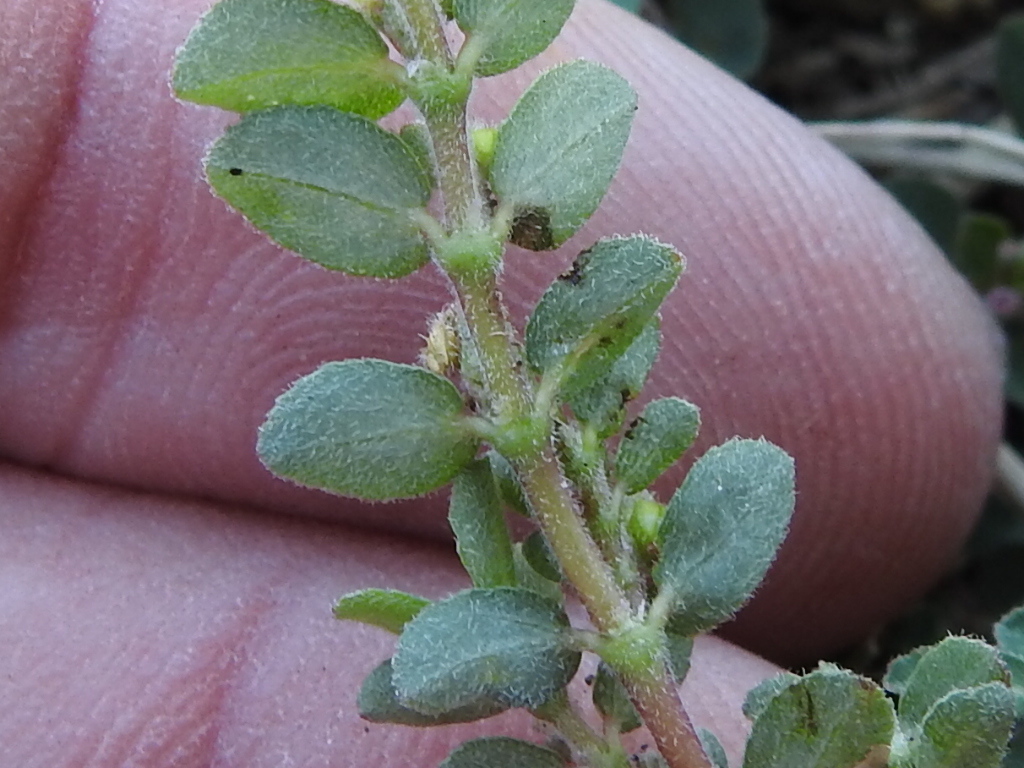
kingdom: Plantae
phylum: Tracheophyta
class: Magnoliopsida
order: Malpighiales
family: Euphorbiaceae
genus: Euphorbia
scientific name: Euphorbia prostrata
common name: Prostrate sandmat
